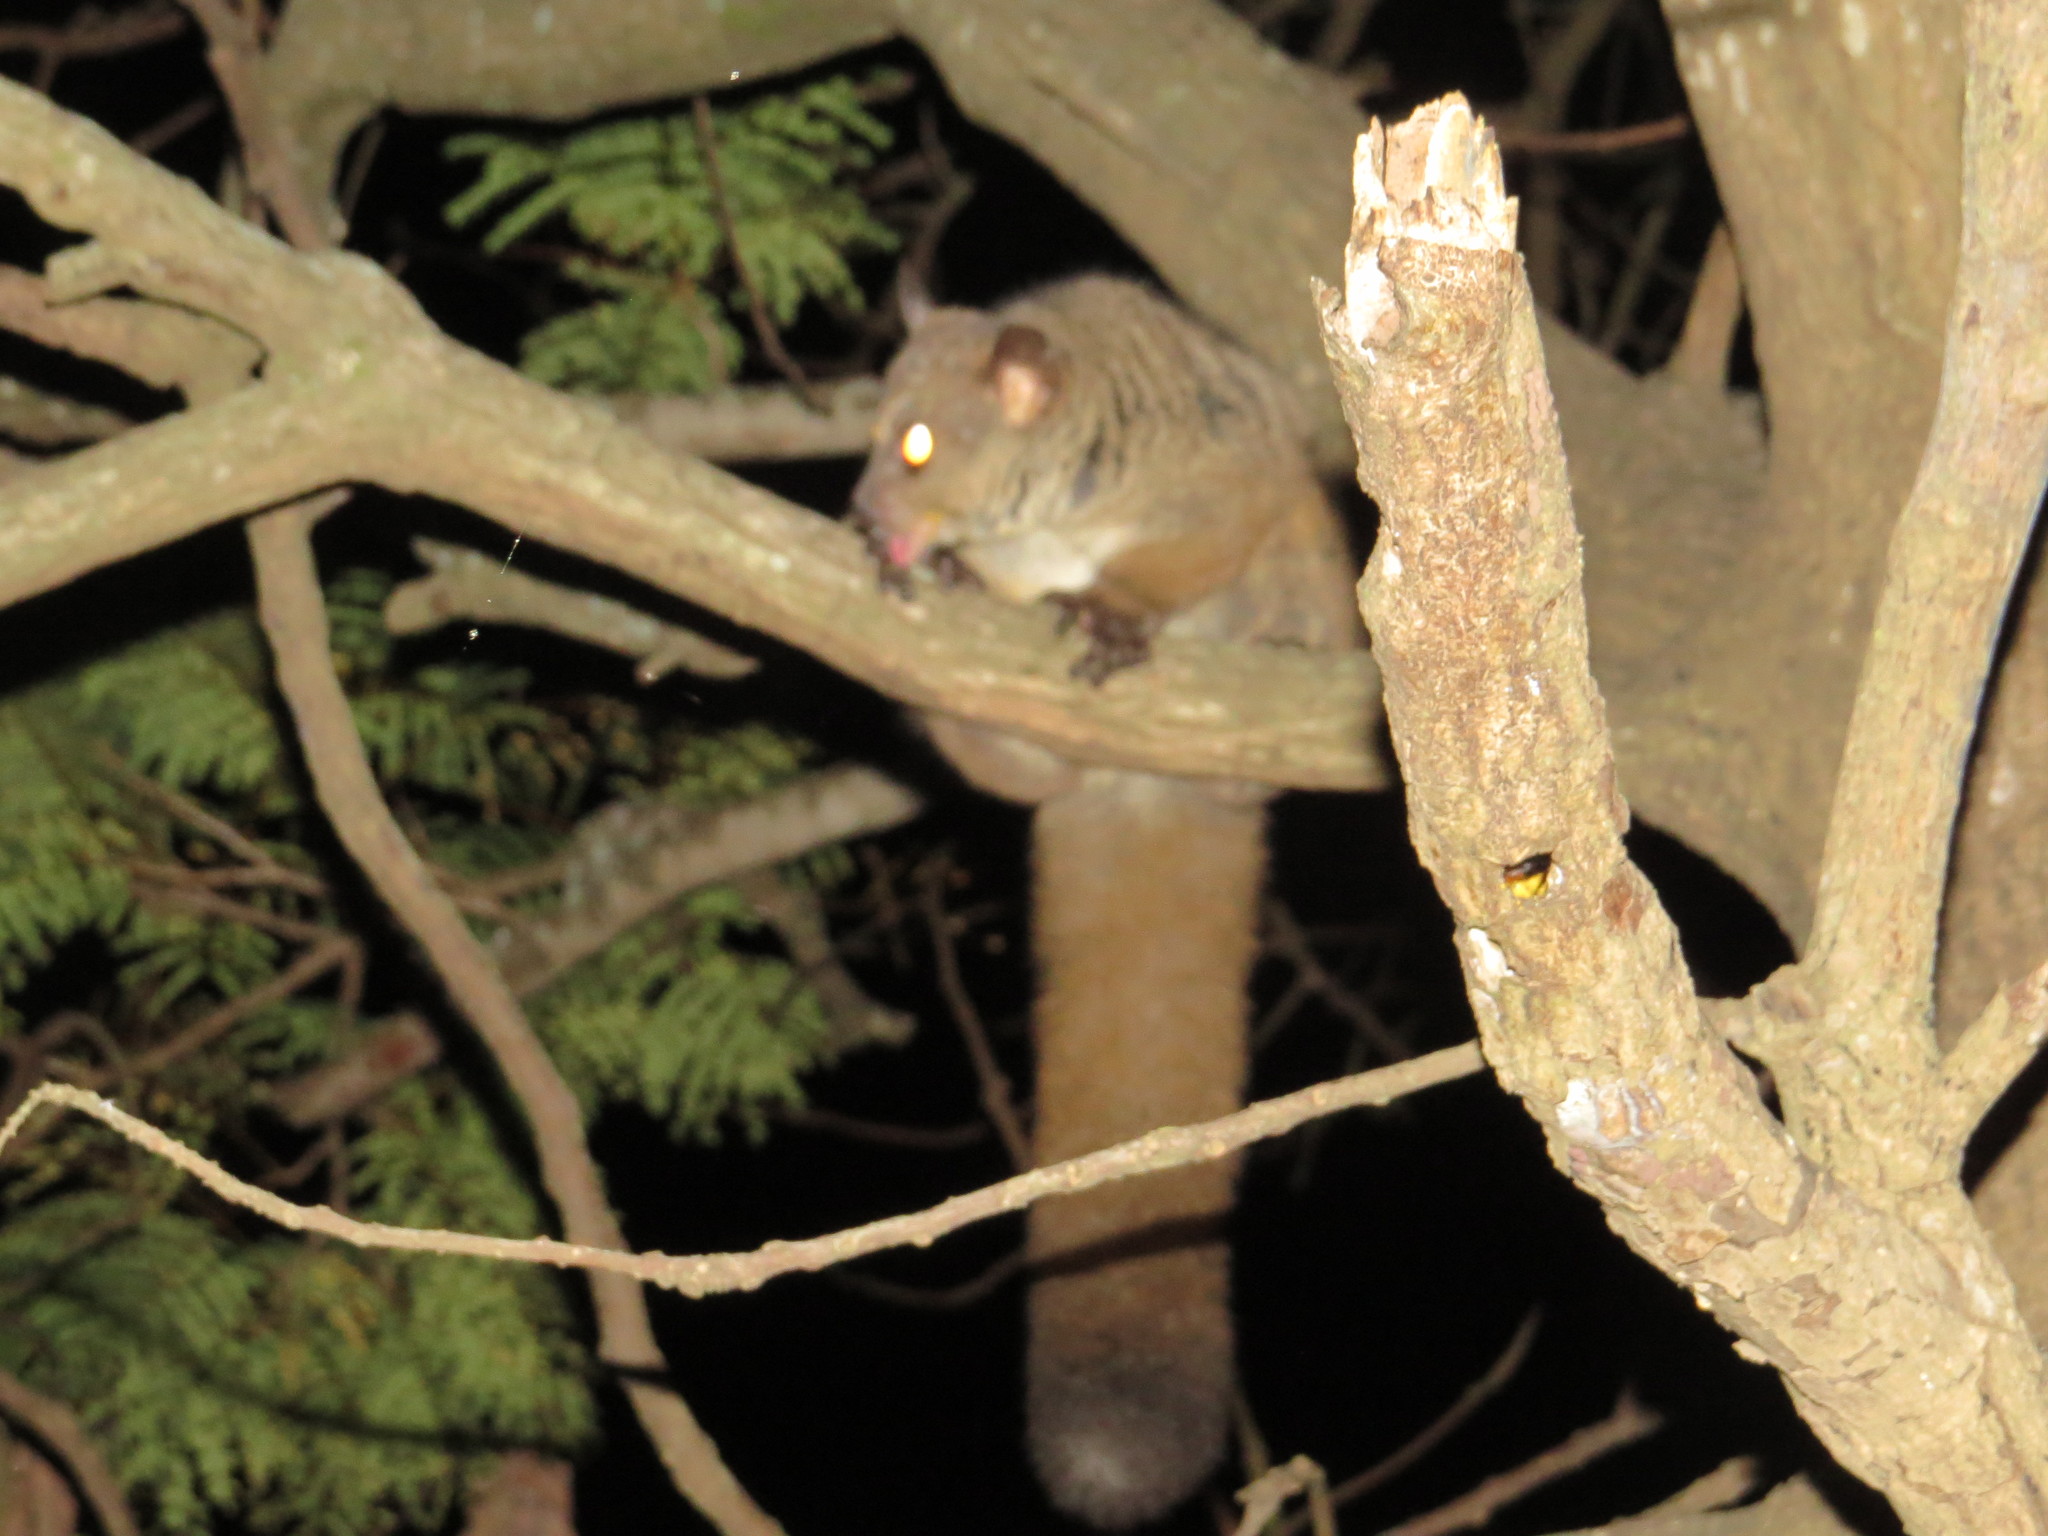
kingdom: Animalia
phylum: Chordata
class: Mammalia
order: Primates
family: Galagidae
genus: Otolemur
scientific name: Otolemur garnettii
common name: Northern greater galago
